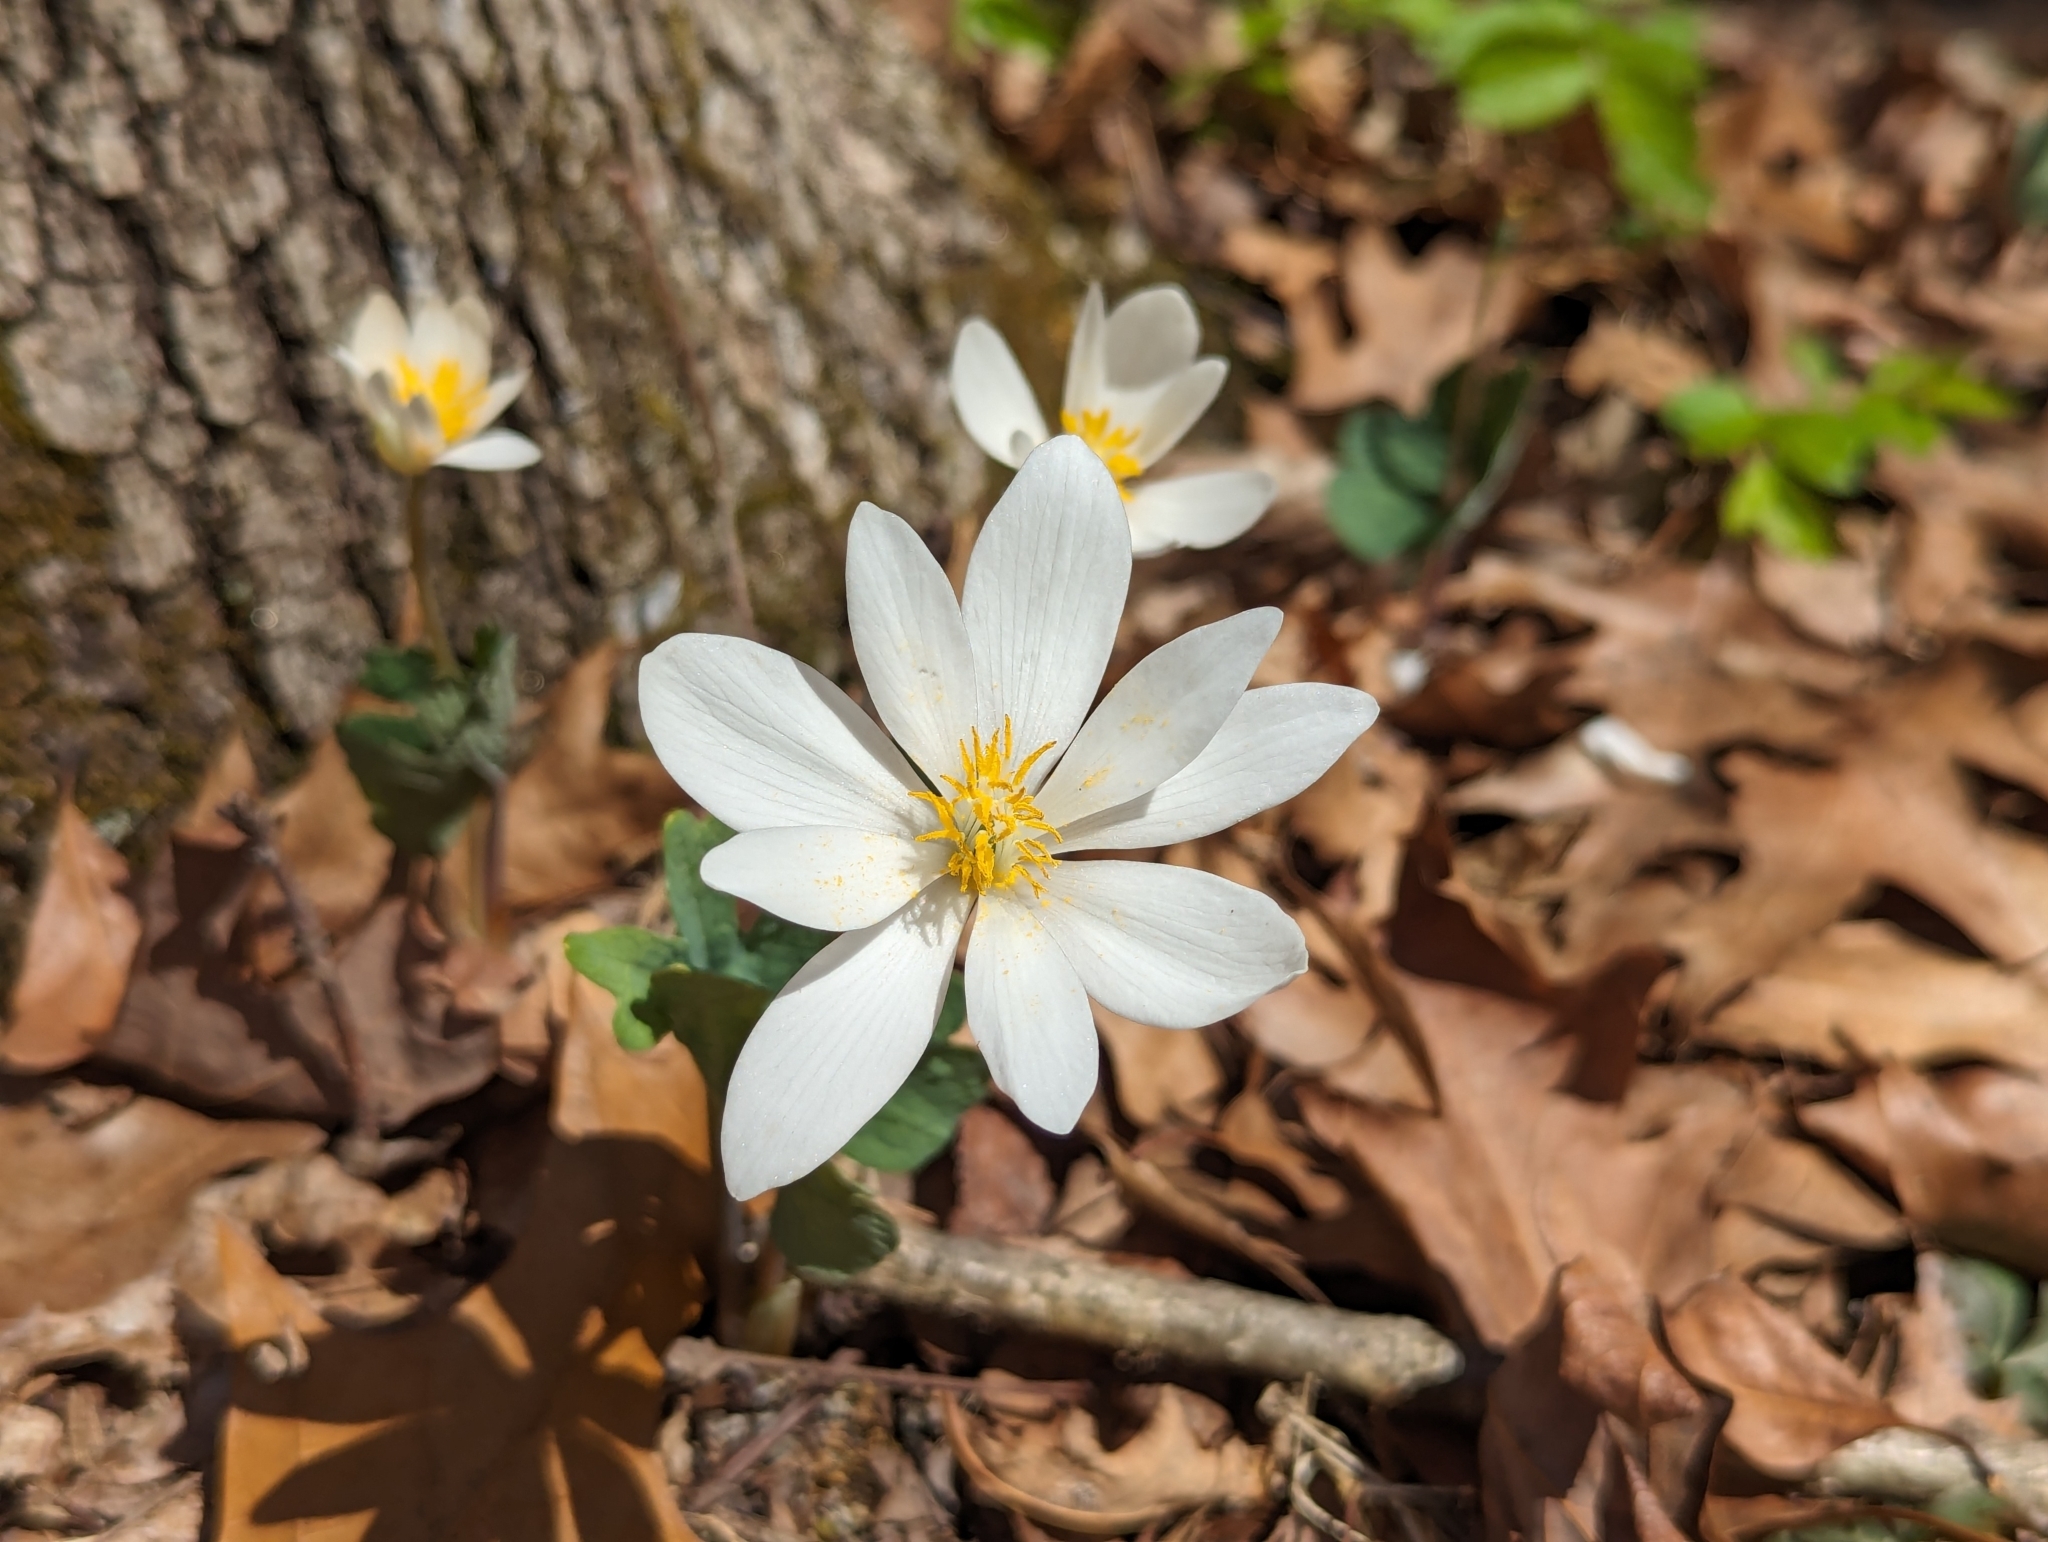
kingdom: Plantae
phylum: Tracheophyta
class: Magnoliopsida
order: Ranunculales
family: Papaveraceae
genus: Sanguinaria
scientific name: Sanguinaria canadensis
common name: Bloodroot
